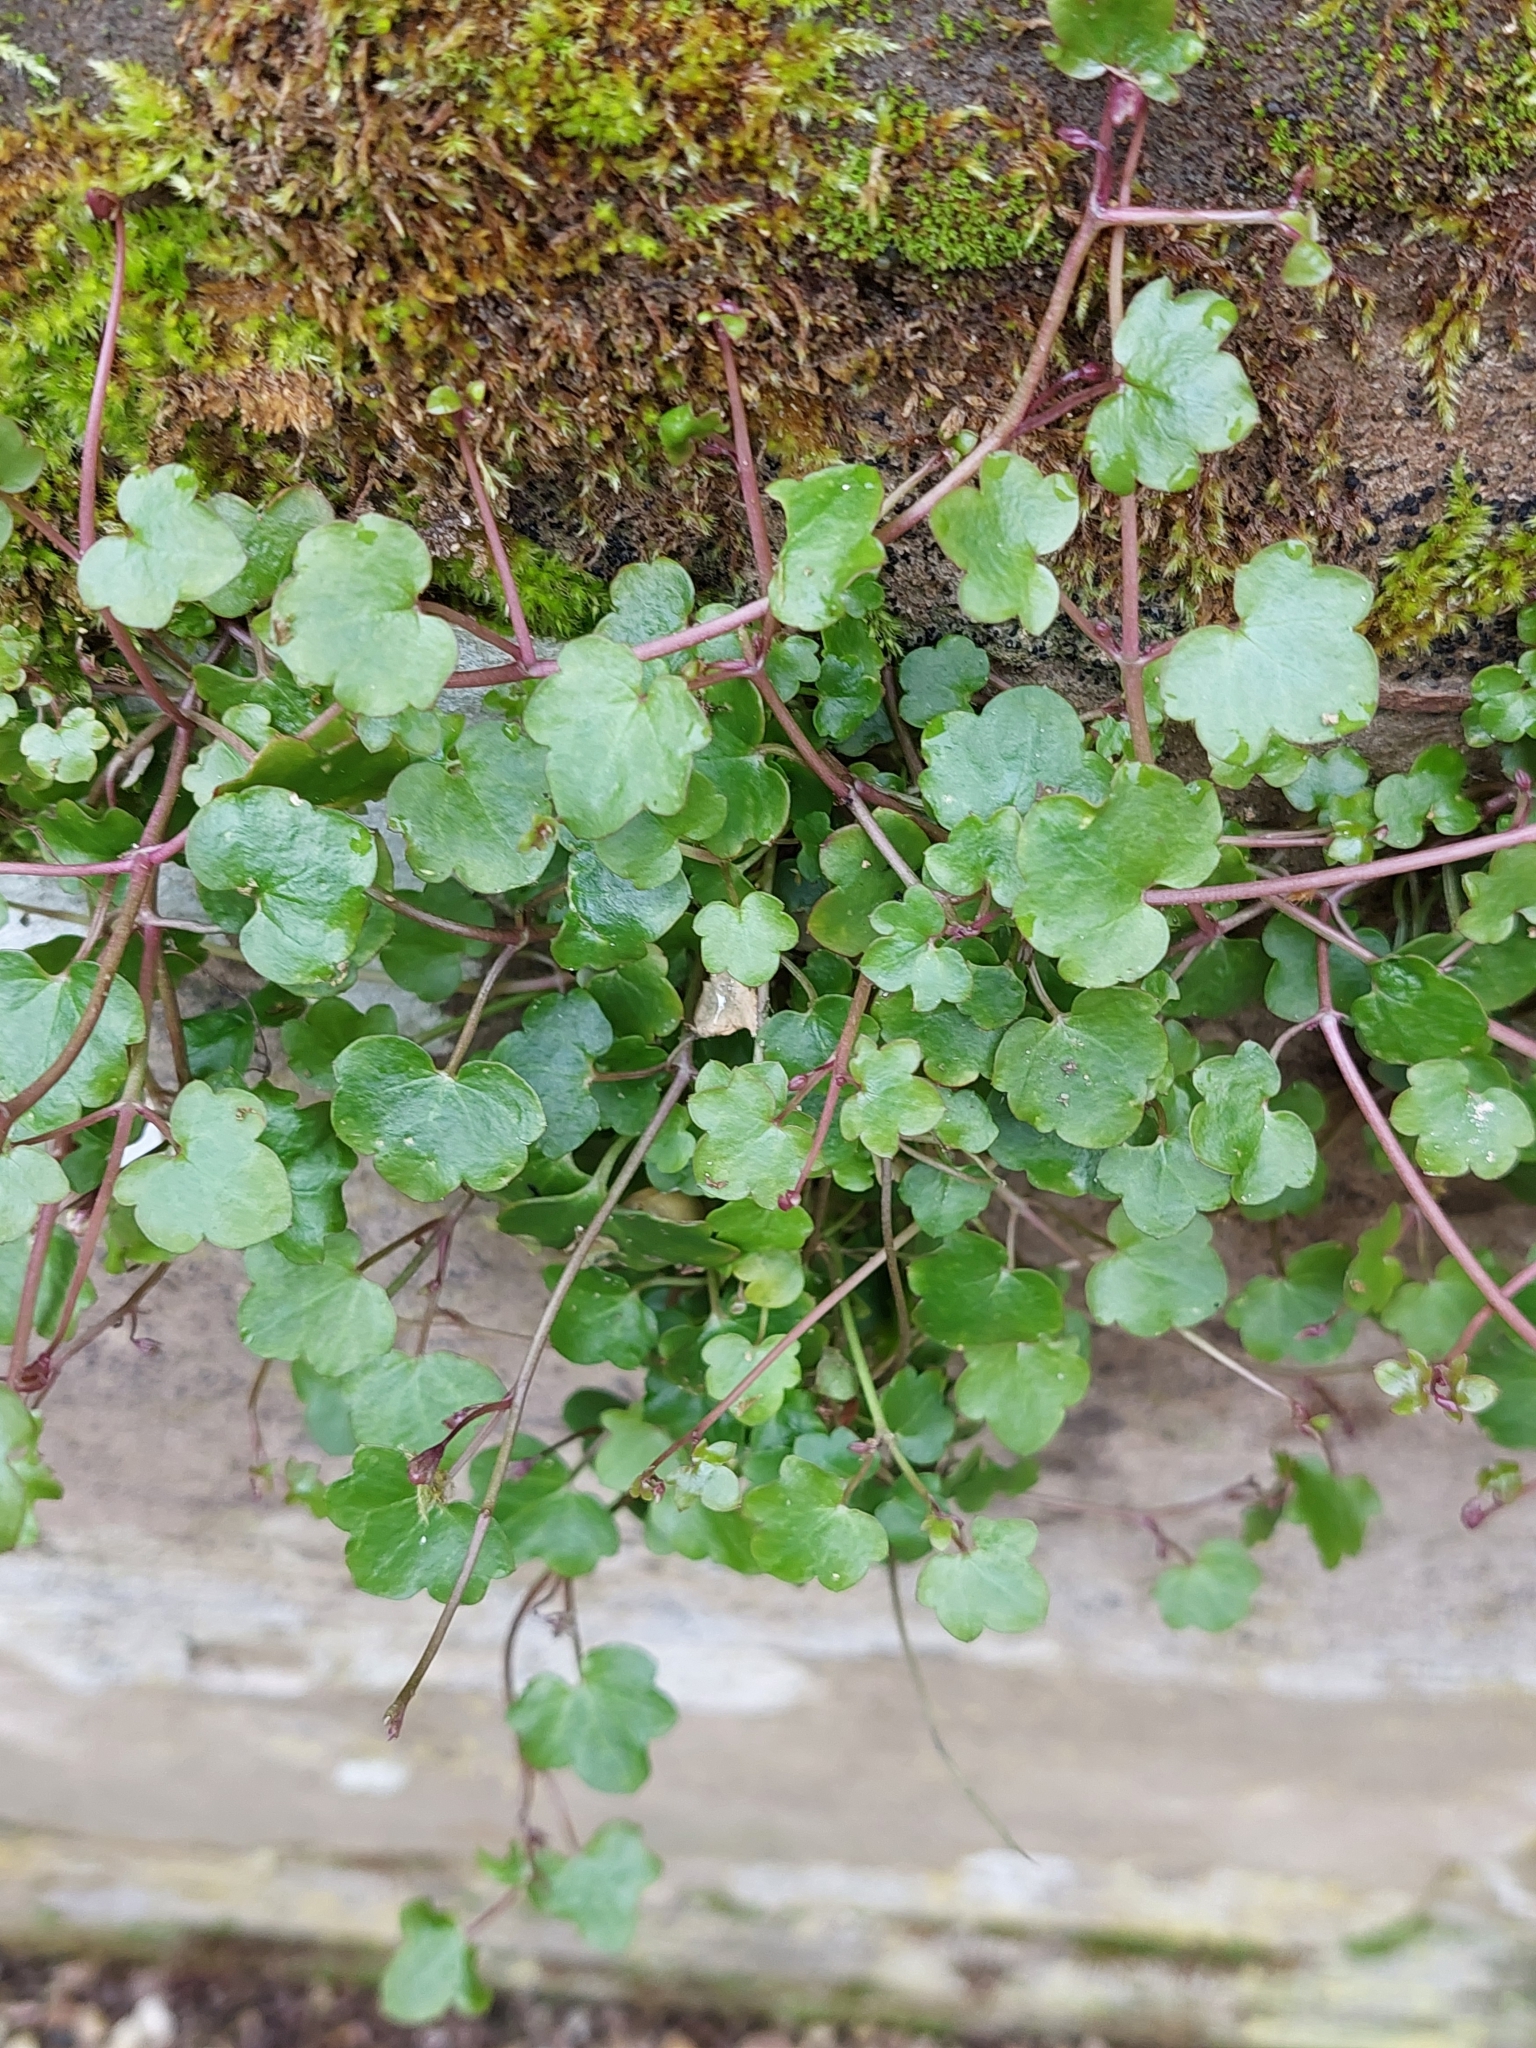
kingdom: Plantae
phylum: Tracheophyta
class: Magnoliopsida
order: Lamiales
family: Plantaginaceae
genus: Cymbalaria
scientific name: Cymbalaria muralis
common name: Ivy-leaved toadflax
